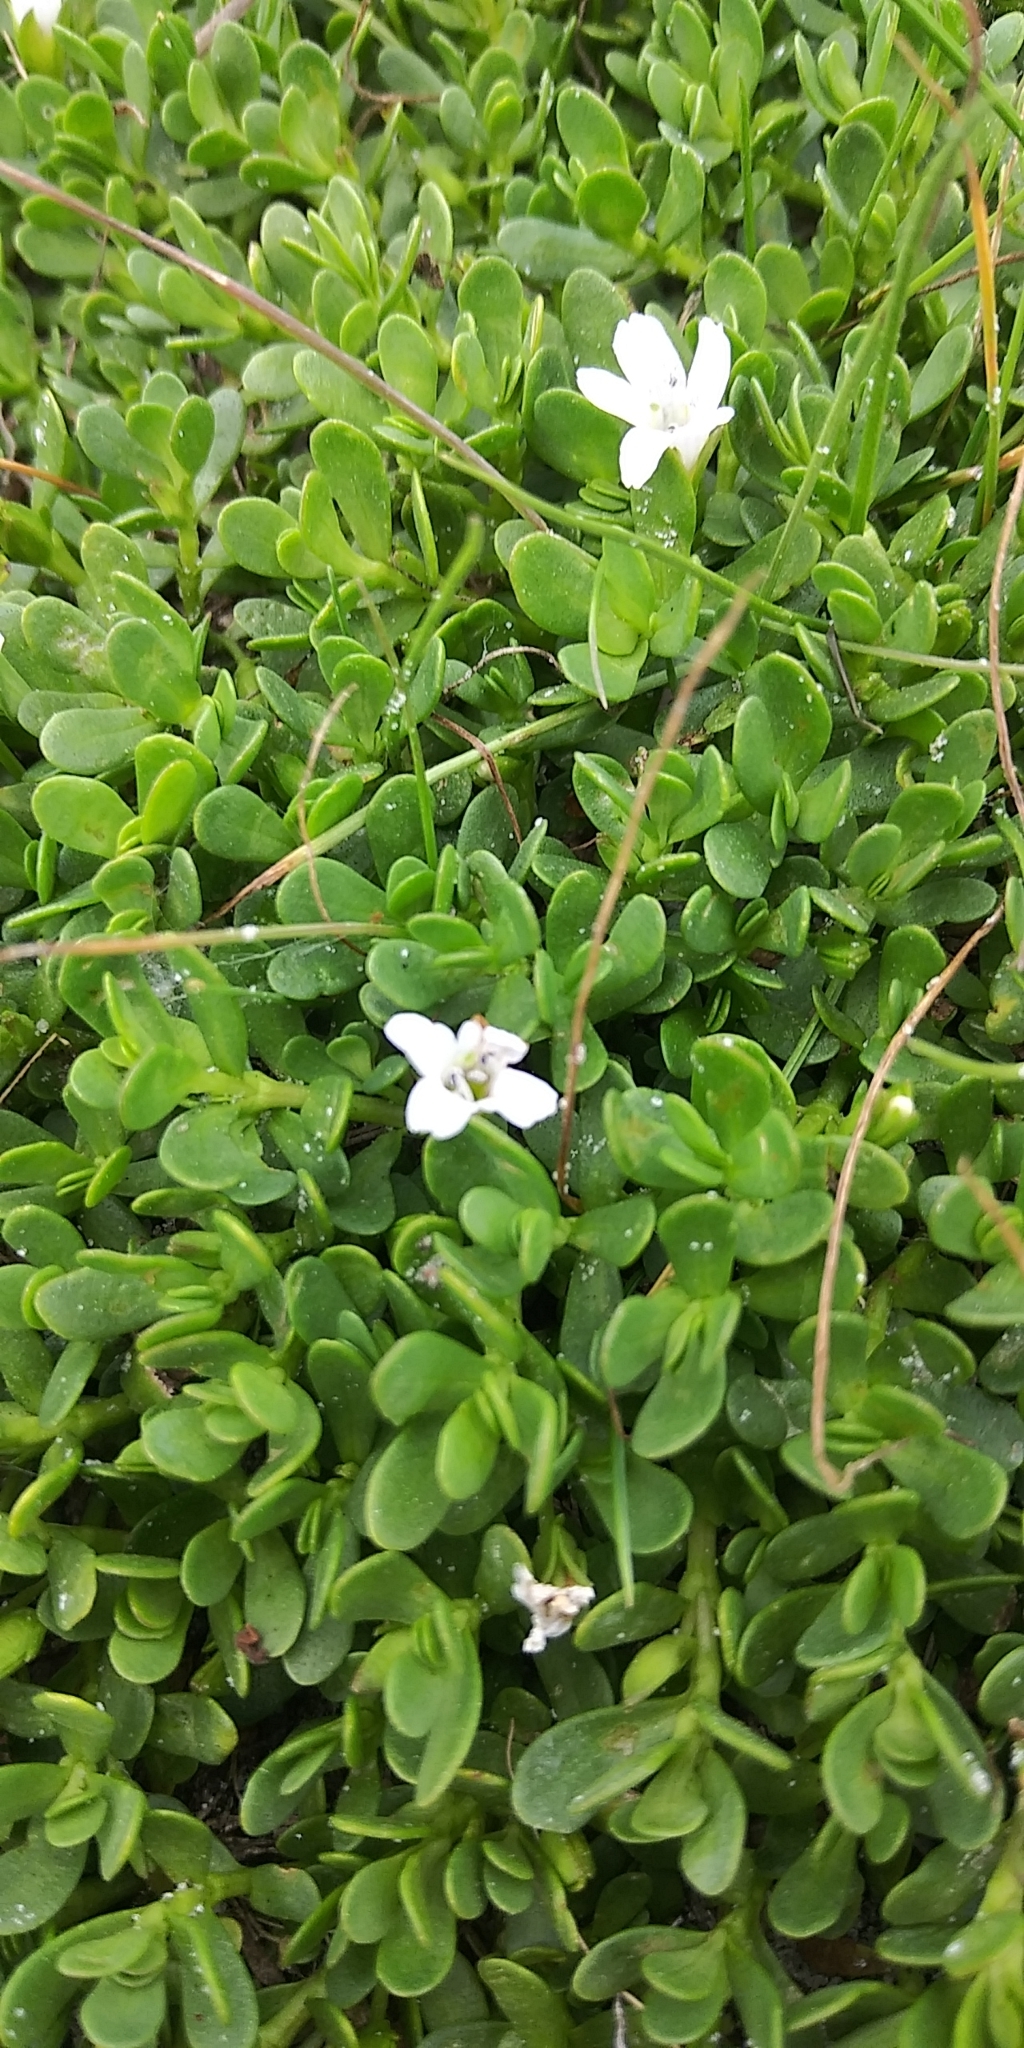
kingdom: Plantae
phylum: Tracheophyta
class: Magnoliopsida
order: Lamiales
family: Plantaginaceae
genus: Bacopa
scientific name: Bacopa monnieri
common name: Indian-pennywort
